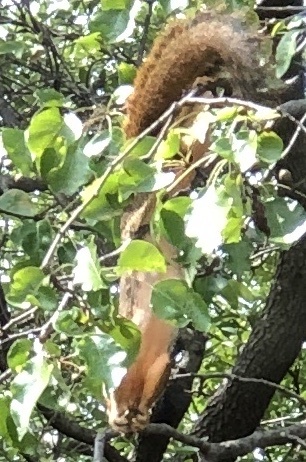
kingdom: Animalia
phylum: Chordata
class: Mammalia
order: Rodentia
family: Sciuridae
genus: Sciurus
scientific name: Sciurus niger
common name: Fox squirrel
